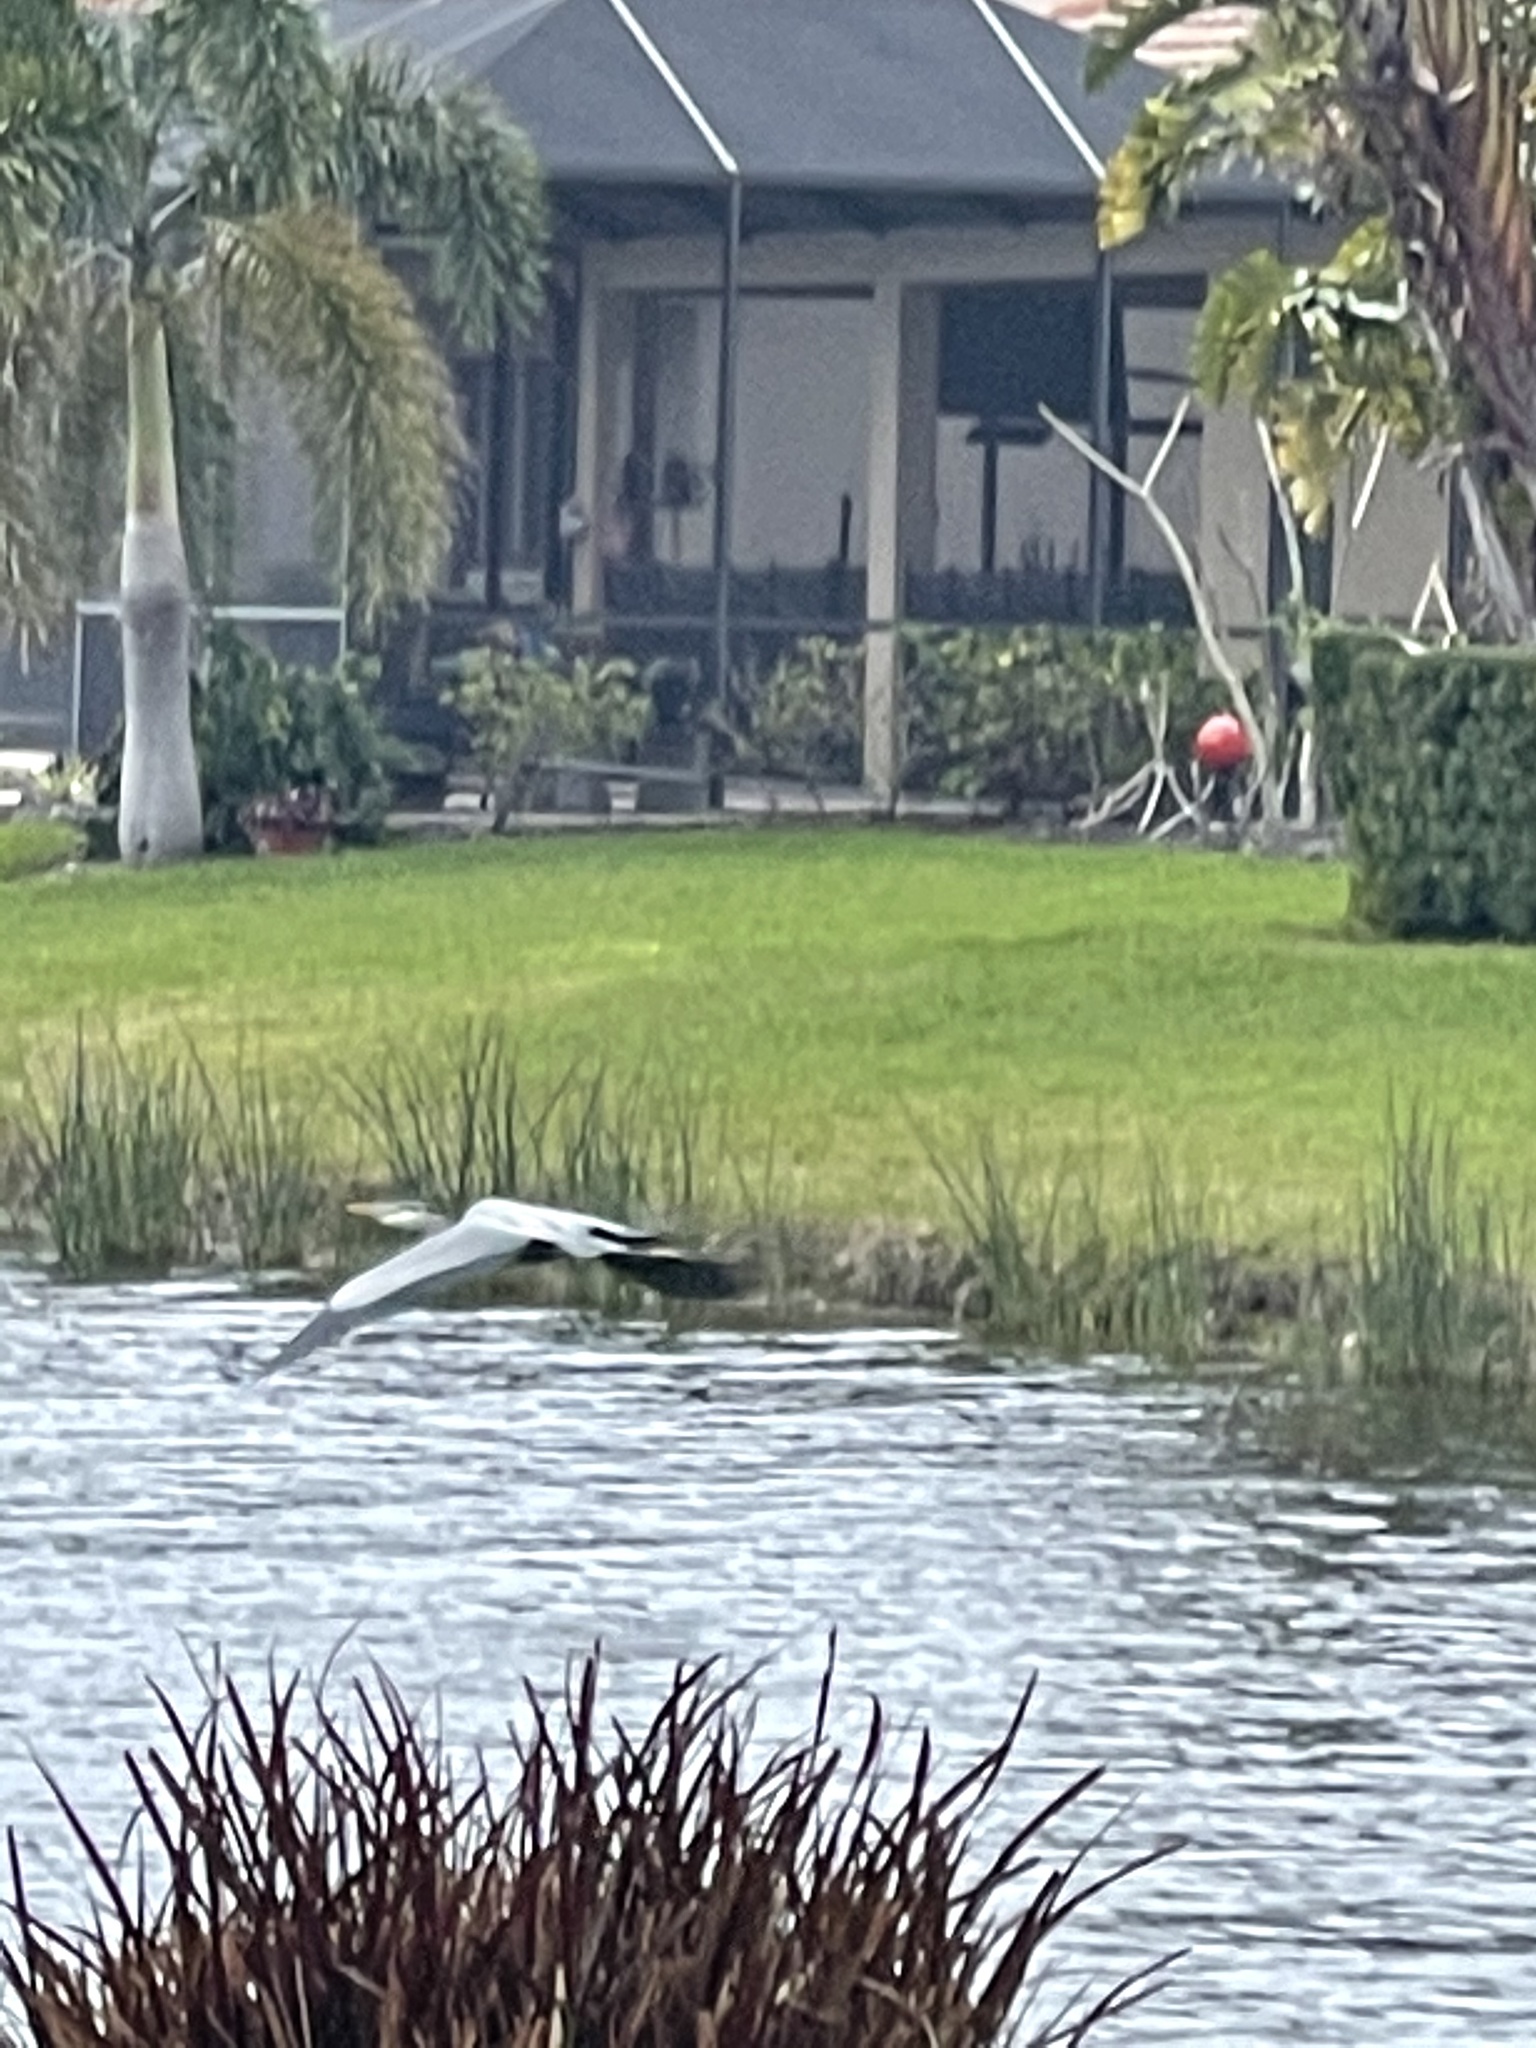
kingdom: Animalia
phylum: Chordata
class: Aves
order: Pelecaniformes
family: Ardeidae
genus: Ardea
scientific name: Ardea herodias
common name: Great blue heron
